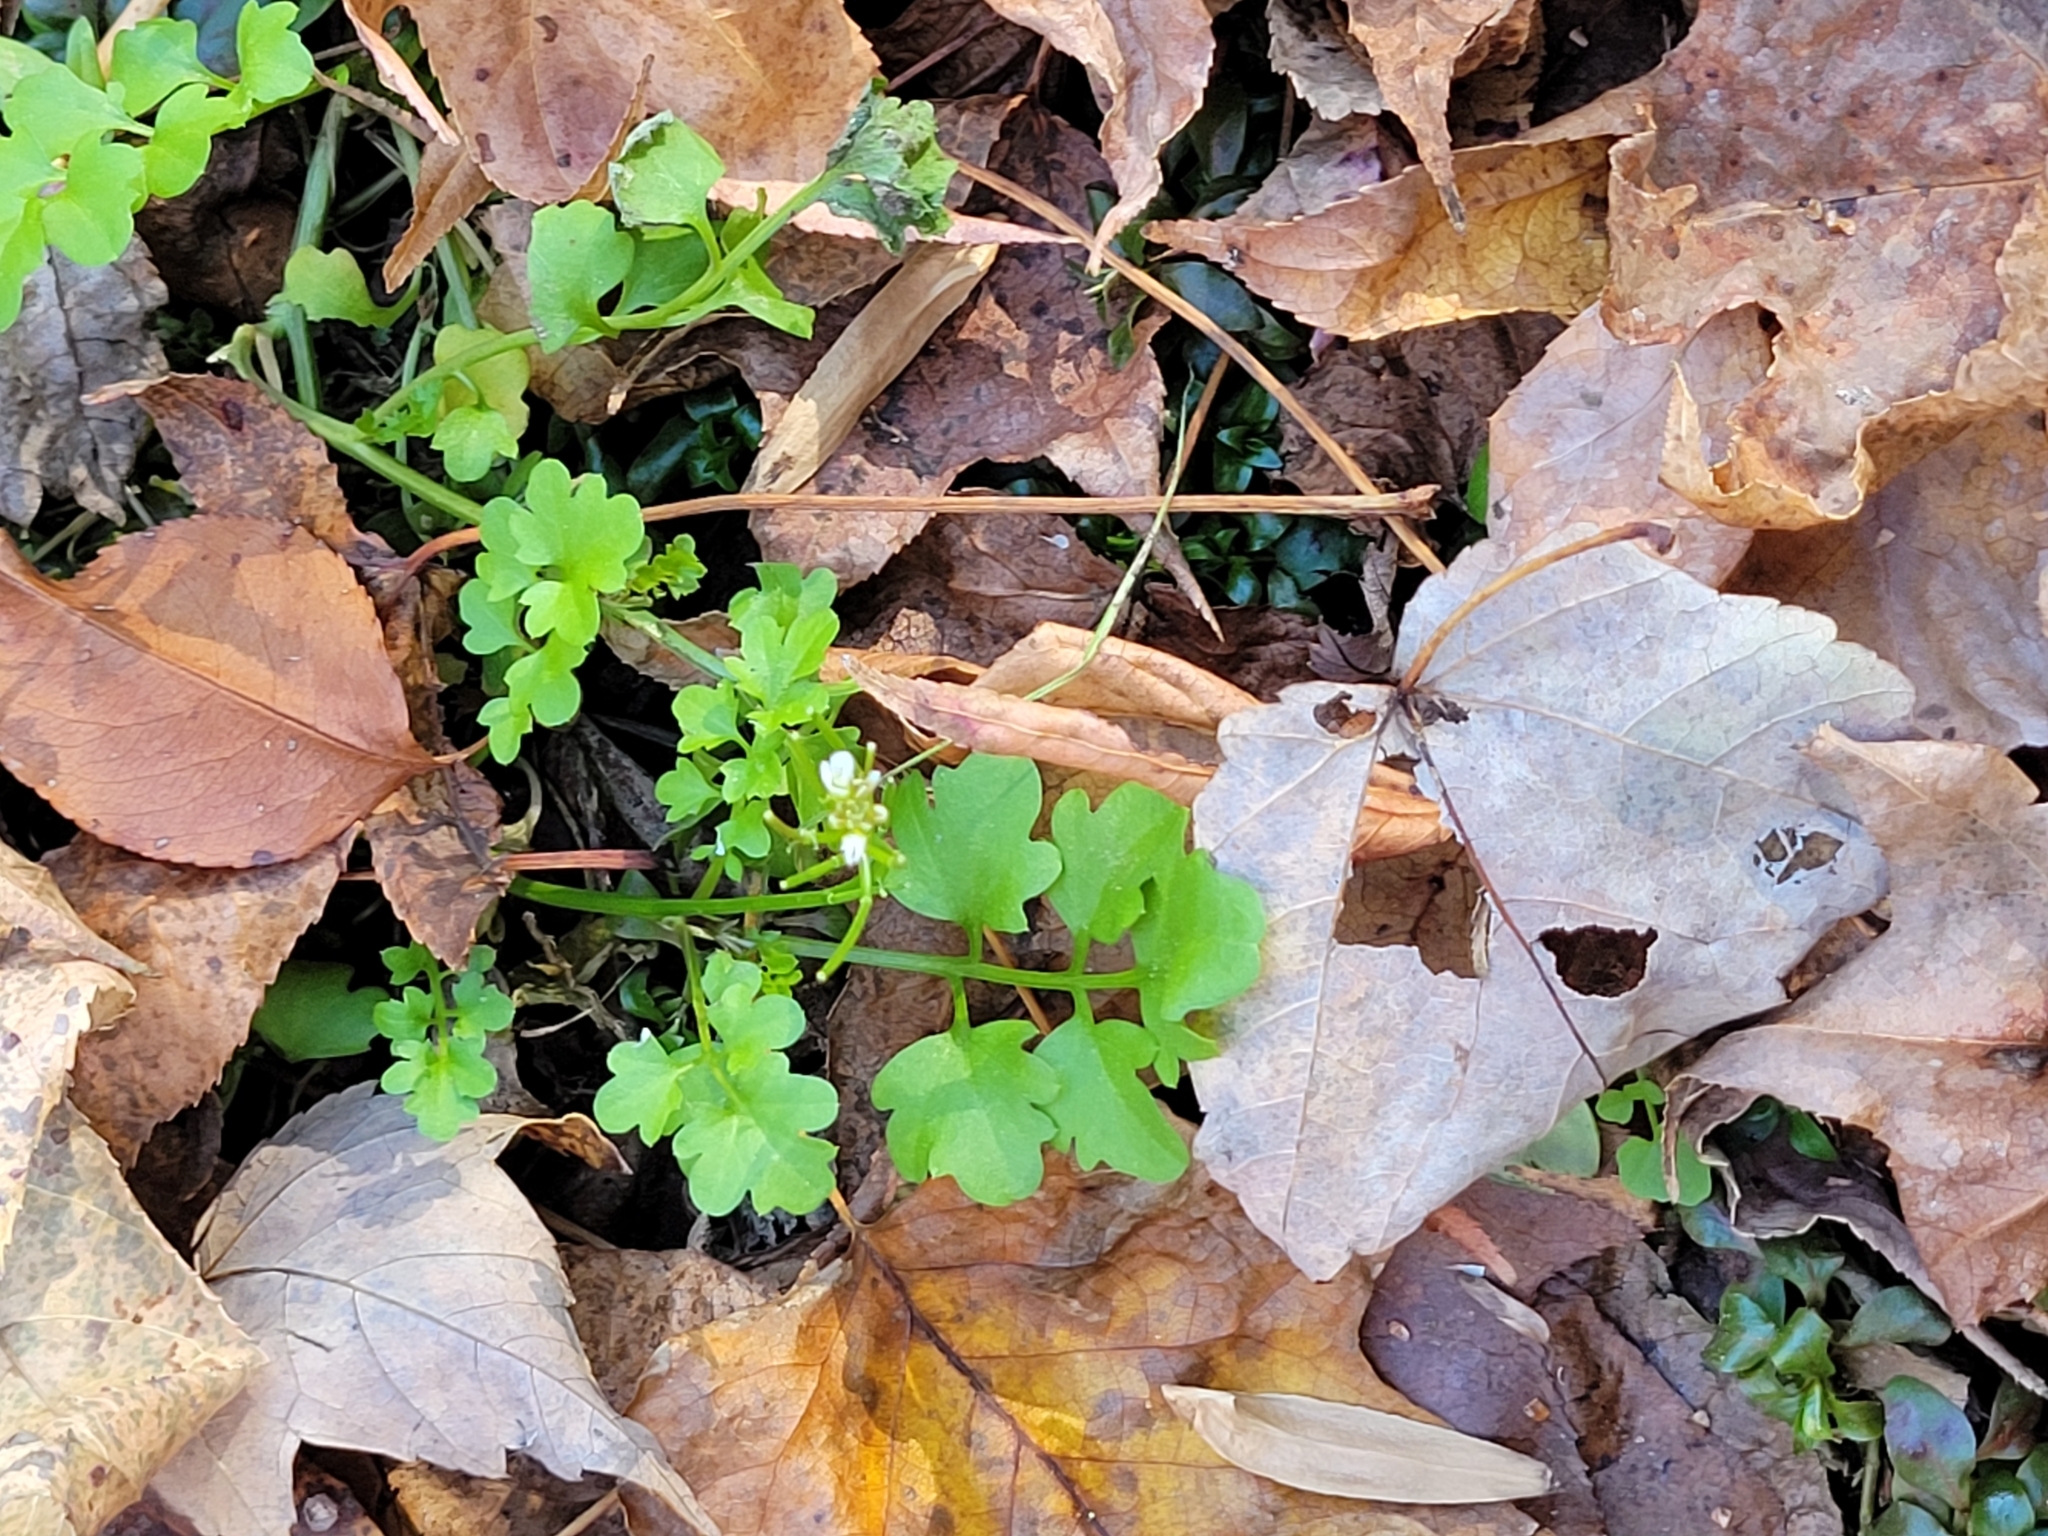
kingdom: Plantae
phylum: Tracheophyta
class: Magnoliopsida
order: Brassicales
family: Brassicaceae
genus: Cardamine
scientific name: Cardamine occulta
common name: Asian wavy bittercress
